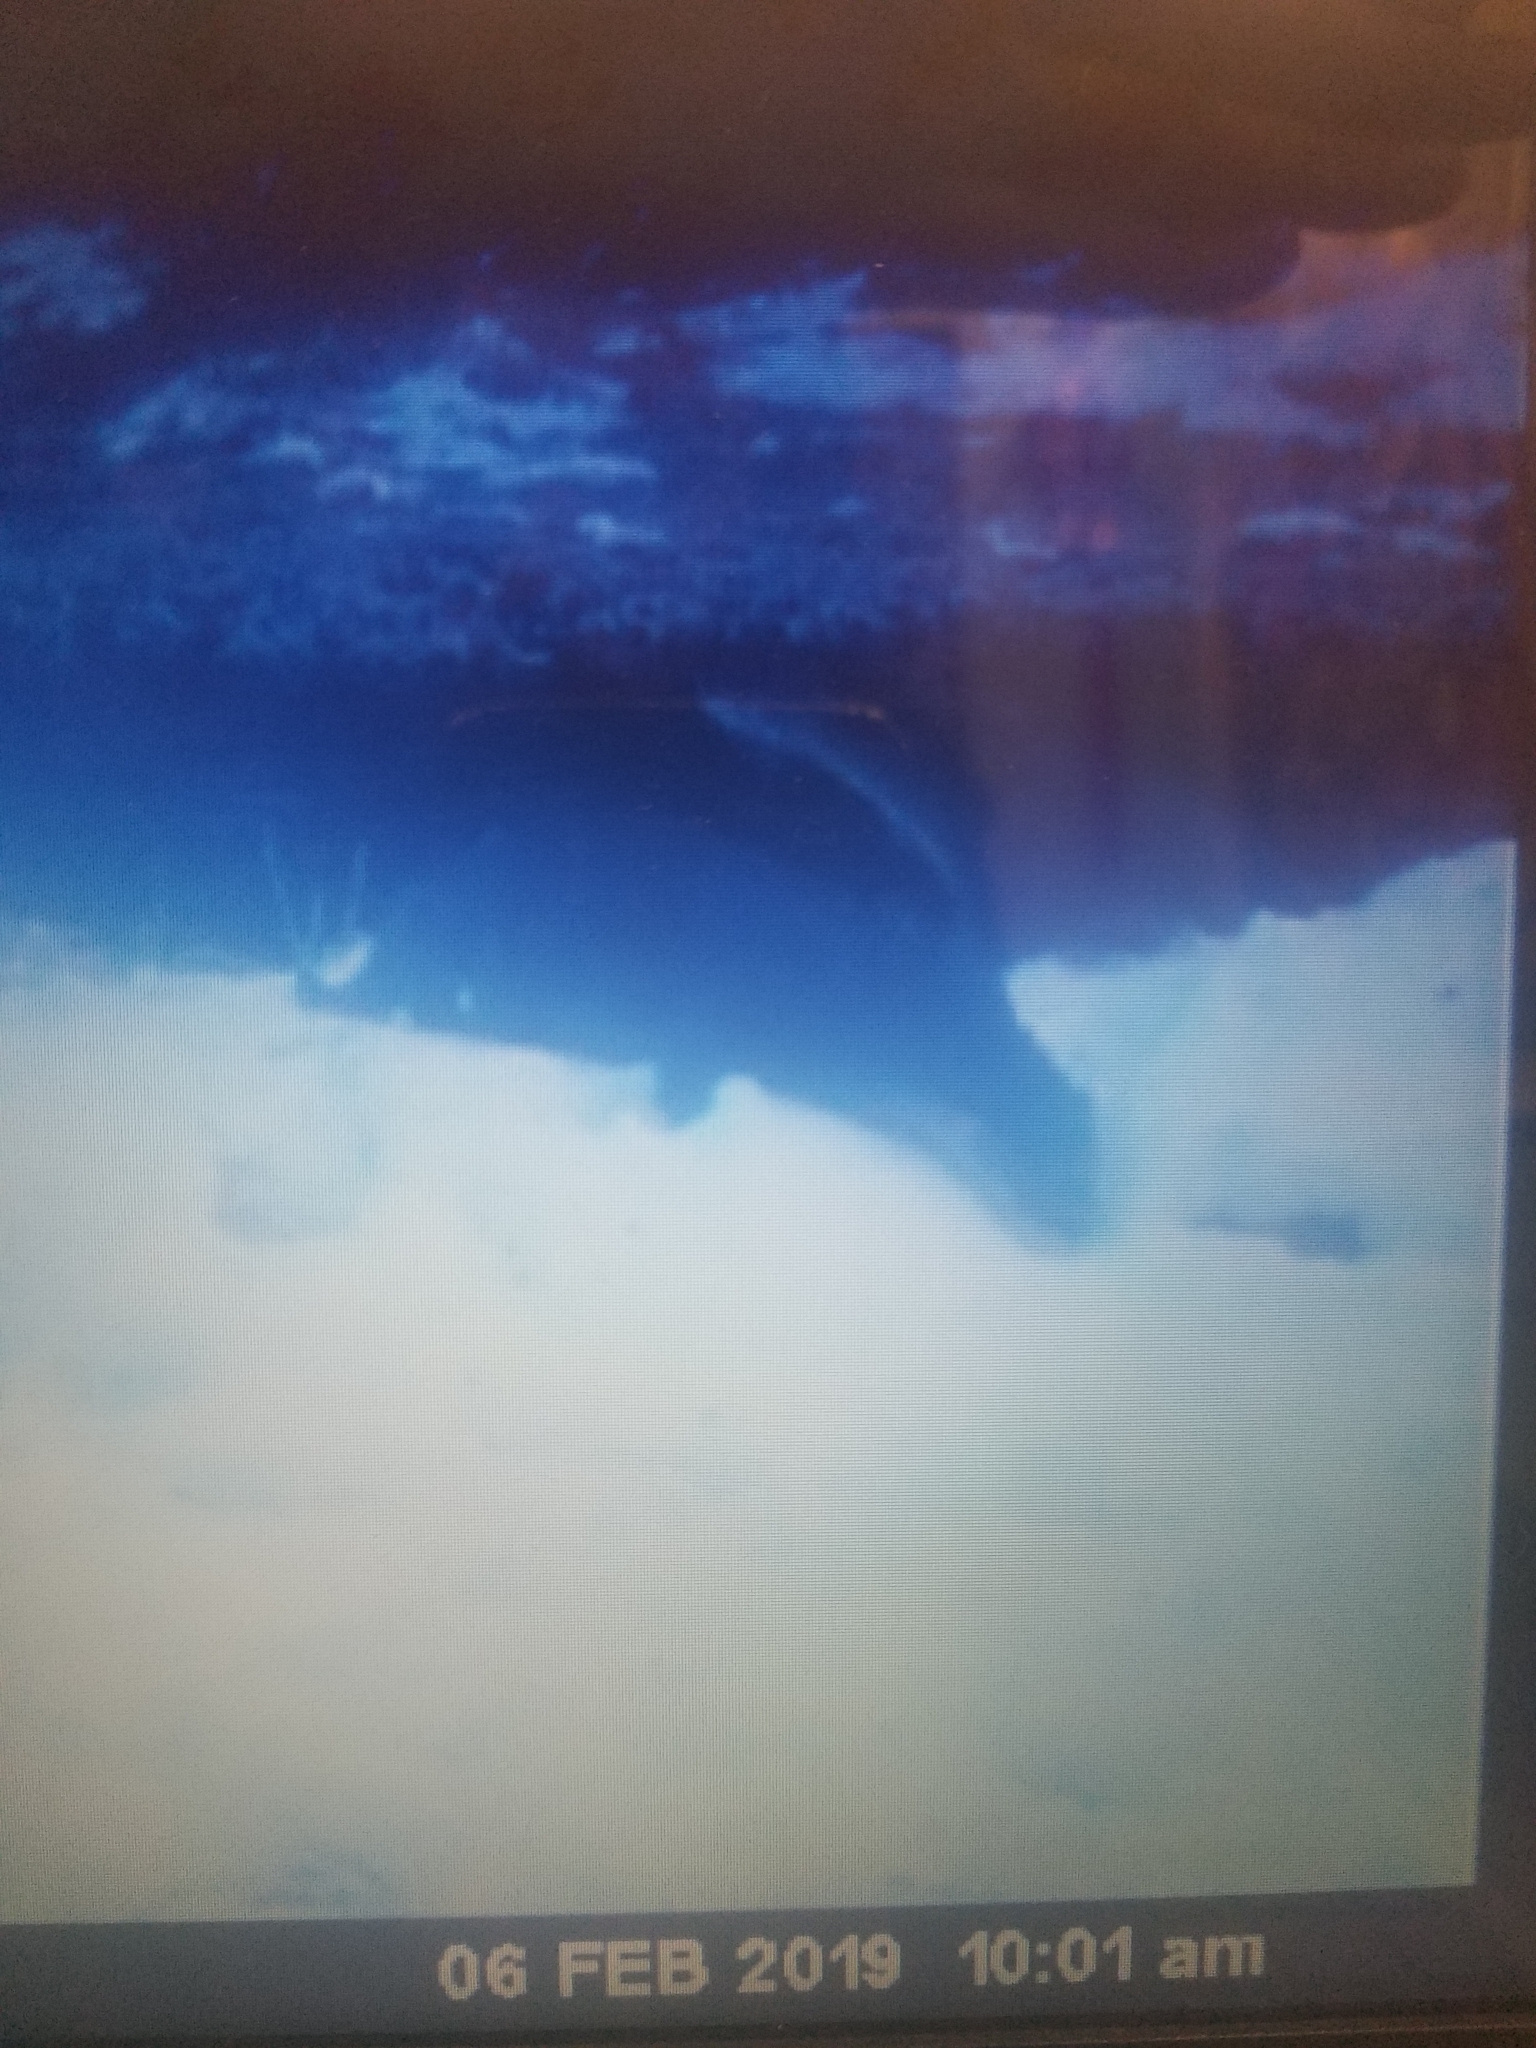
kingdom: Animalia
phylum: Chordata
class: Mammalia
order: Carnivora
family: Mustelidae
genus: Lontra
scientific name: Lontra canadensis
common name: North american river otter
